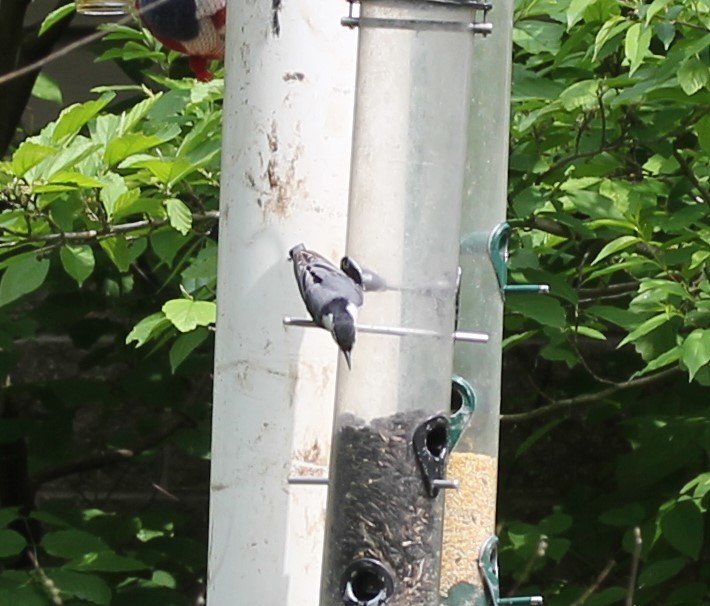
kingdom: Animalia
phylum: Chordata
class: Aves
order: Passeriformes
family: Sittidae
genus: Sitta
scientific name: Sitta carolinensis
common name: White-breasted nuthatch
